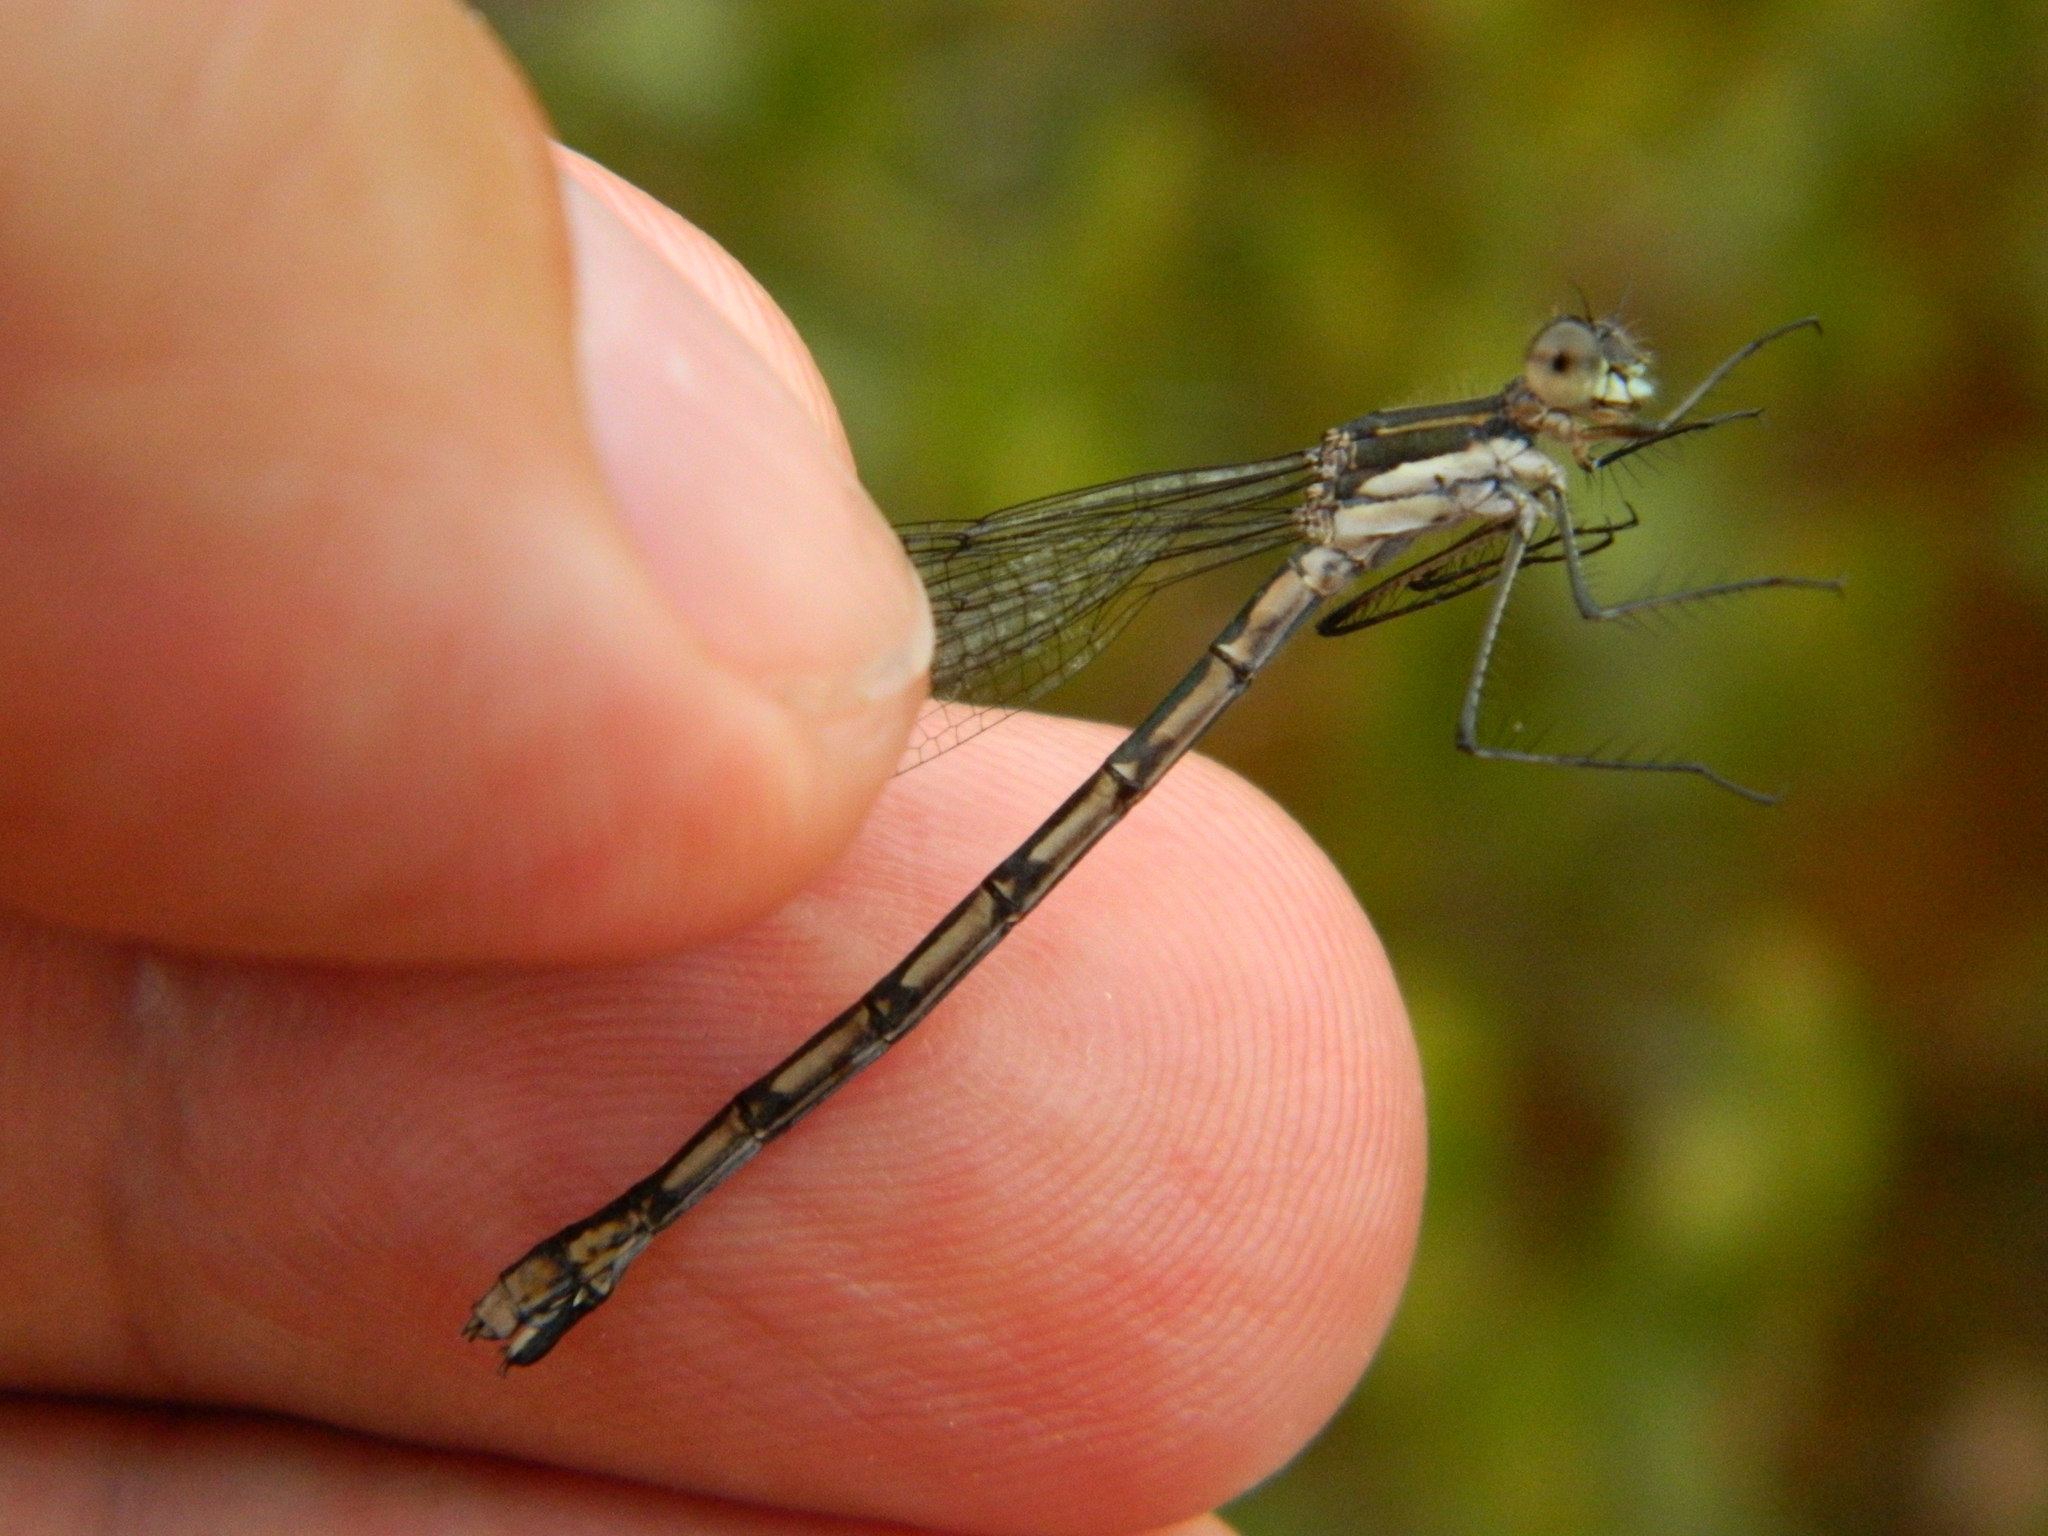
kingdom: Animalia
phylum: Arthropoda
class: Insecta
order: Odonata
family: Lestidae
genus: Lestes
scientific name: Lestes disjunctus
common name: Northern spreadwing
